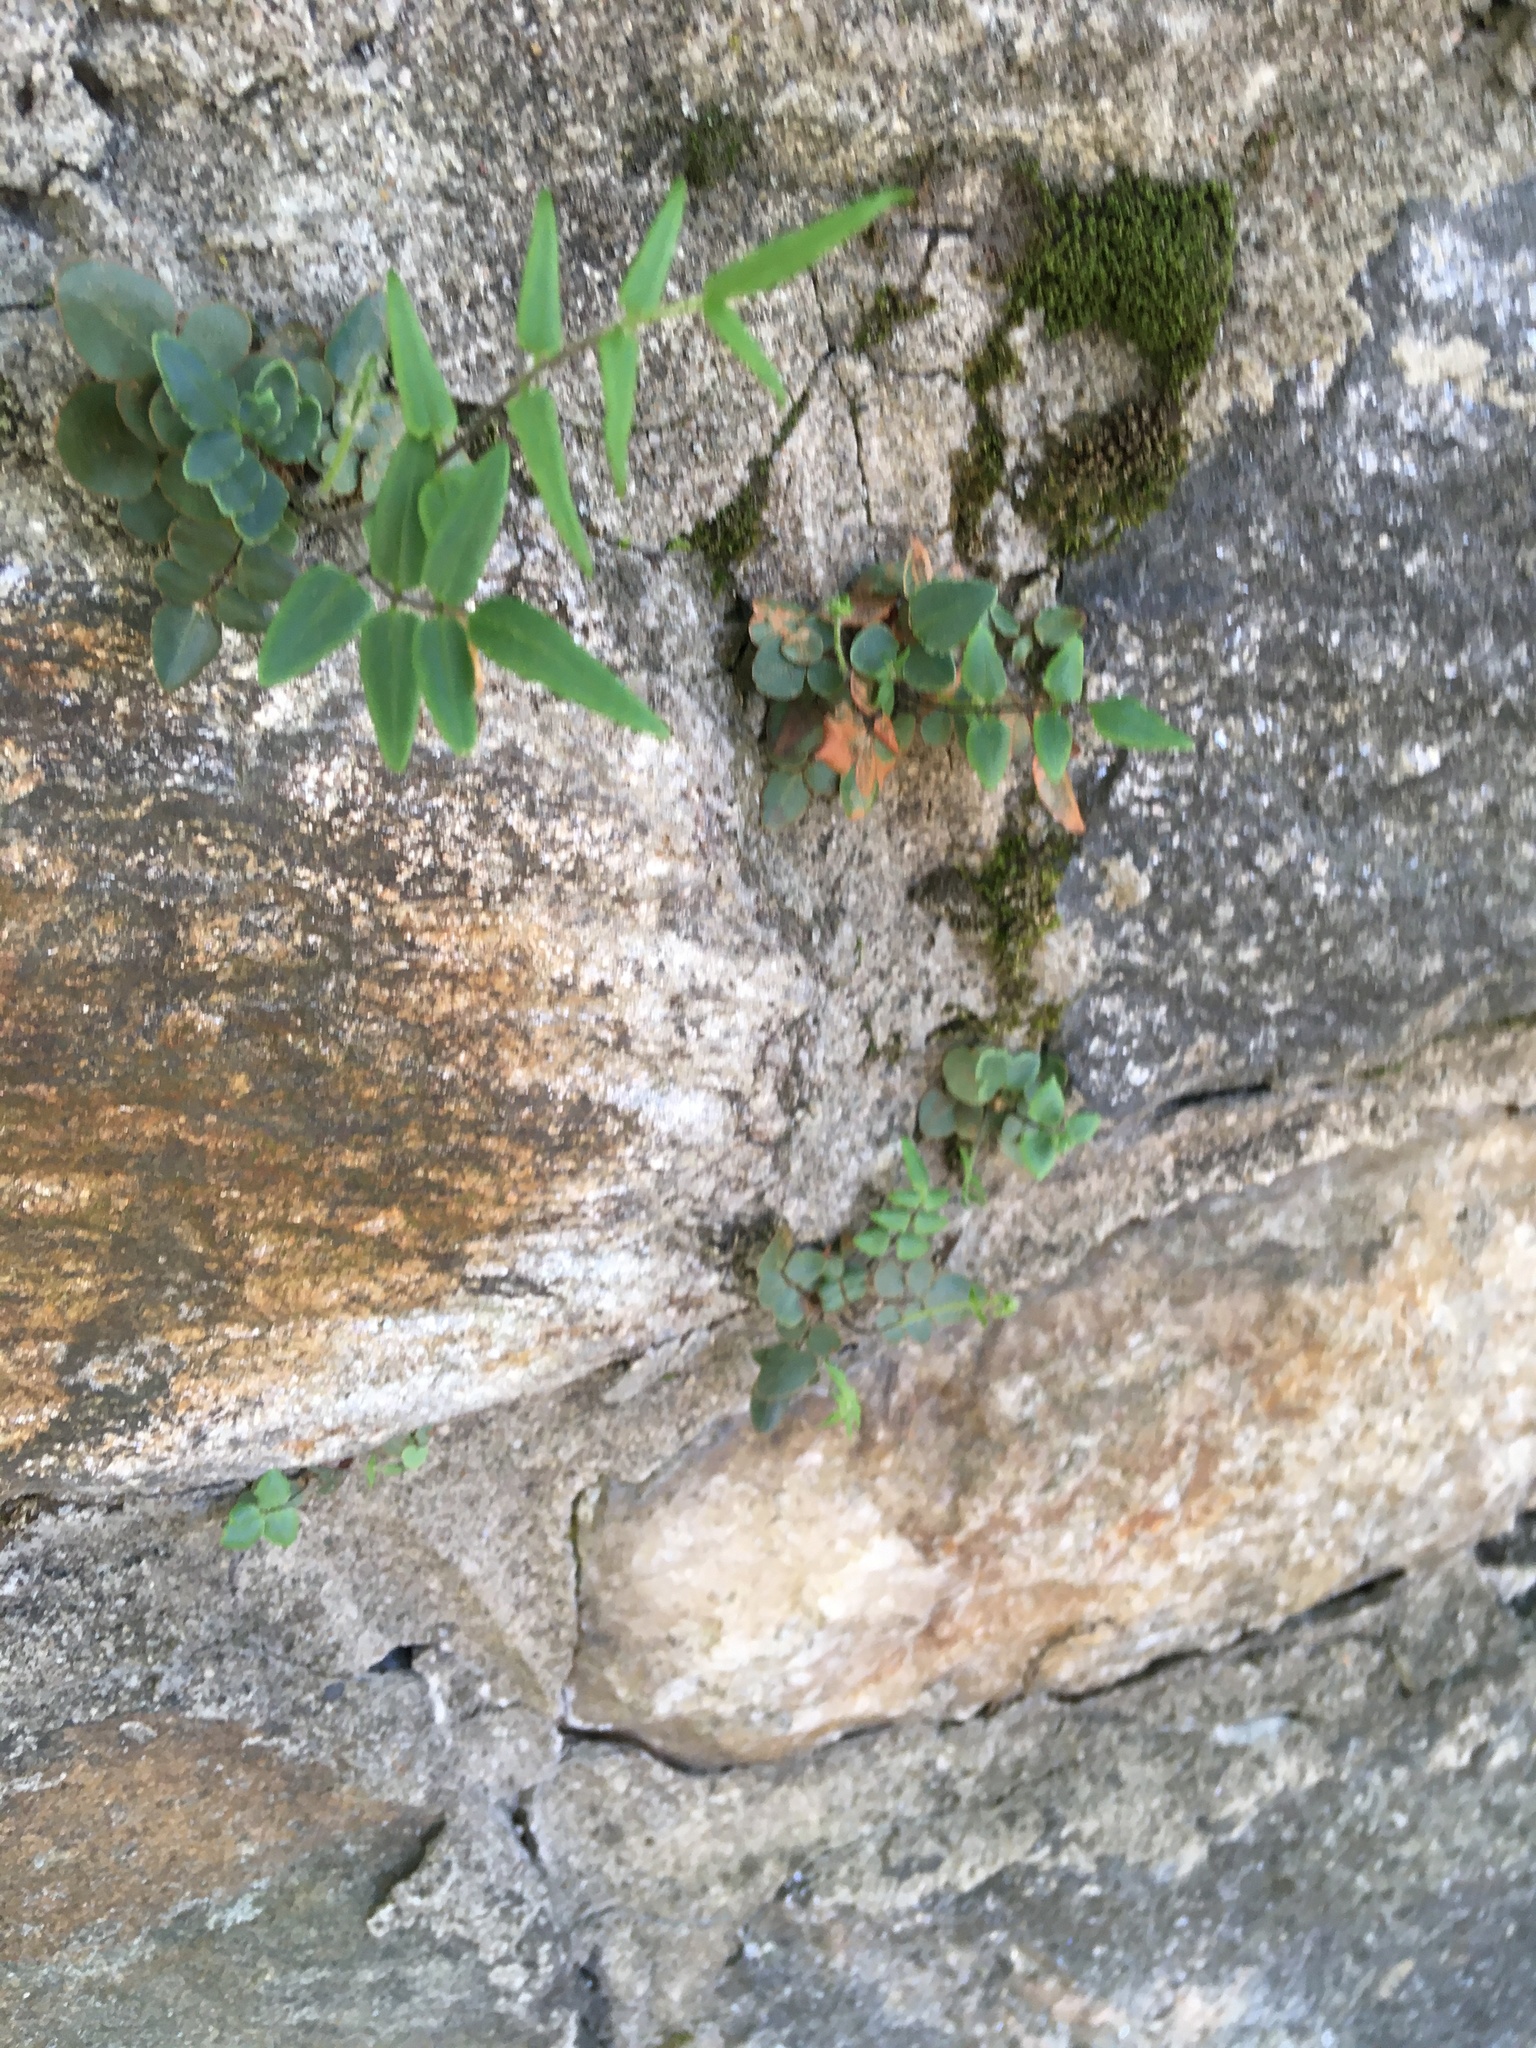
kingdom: Plantae
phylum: Tracheophyta
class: Polypodiopsida
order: Polypodiales
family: Pteridaceae
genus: Pellaea
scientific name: Pellaea atropurpurea
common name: Hairy cliffbrake
